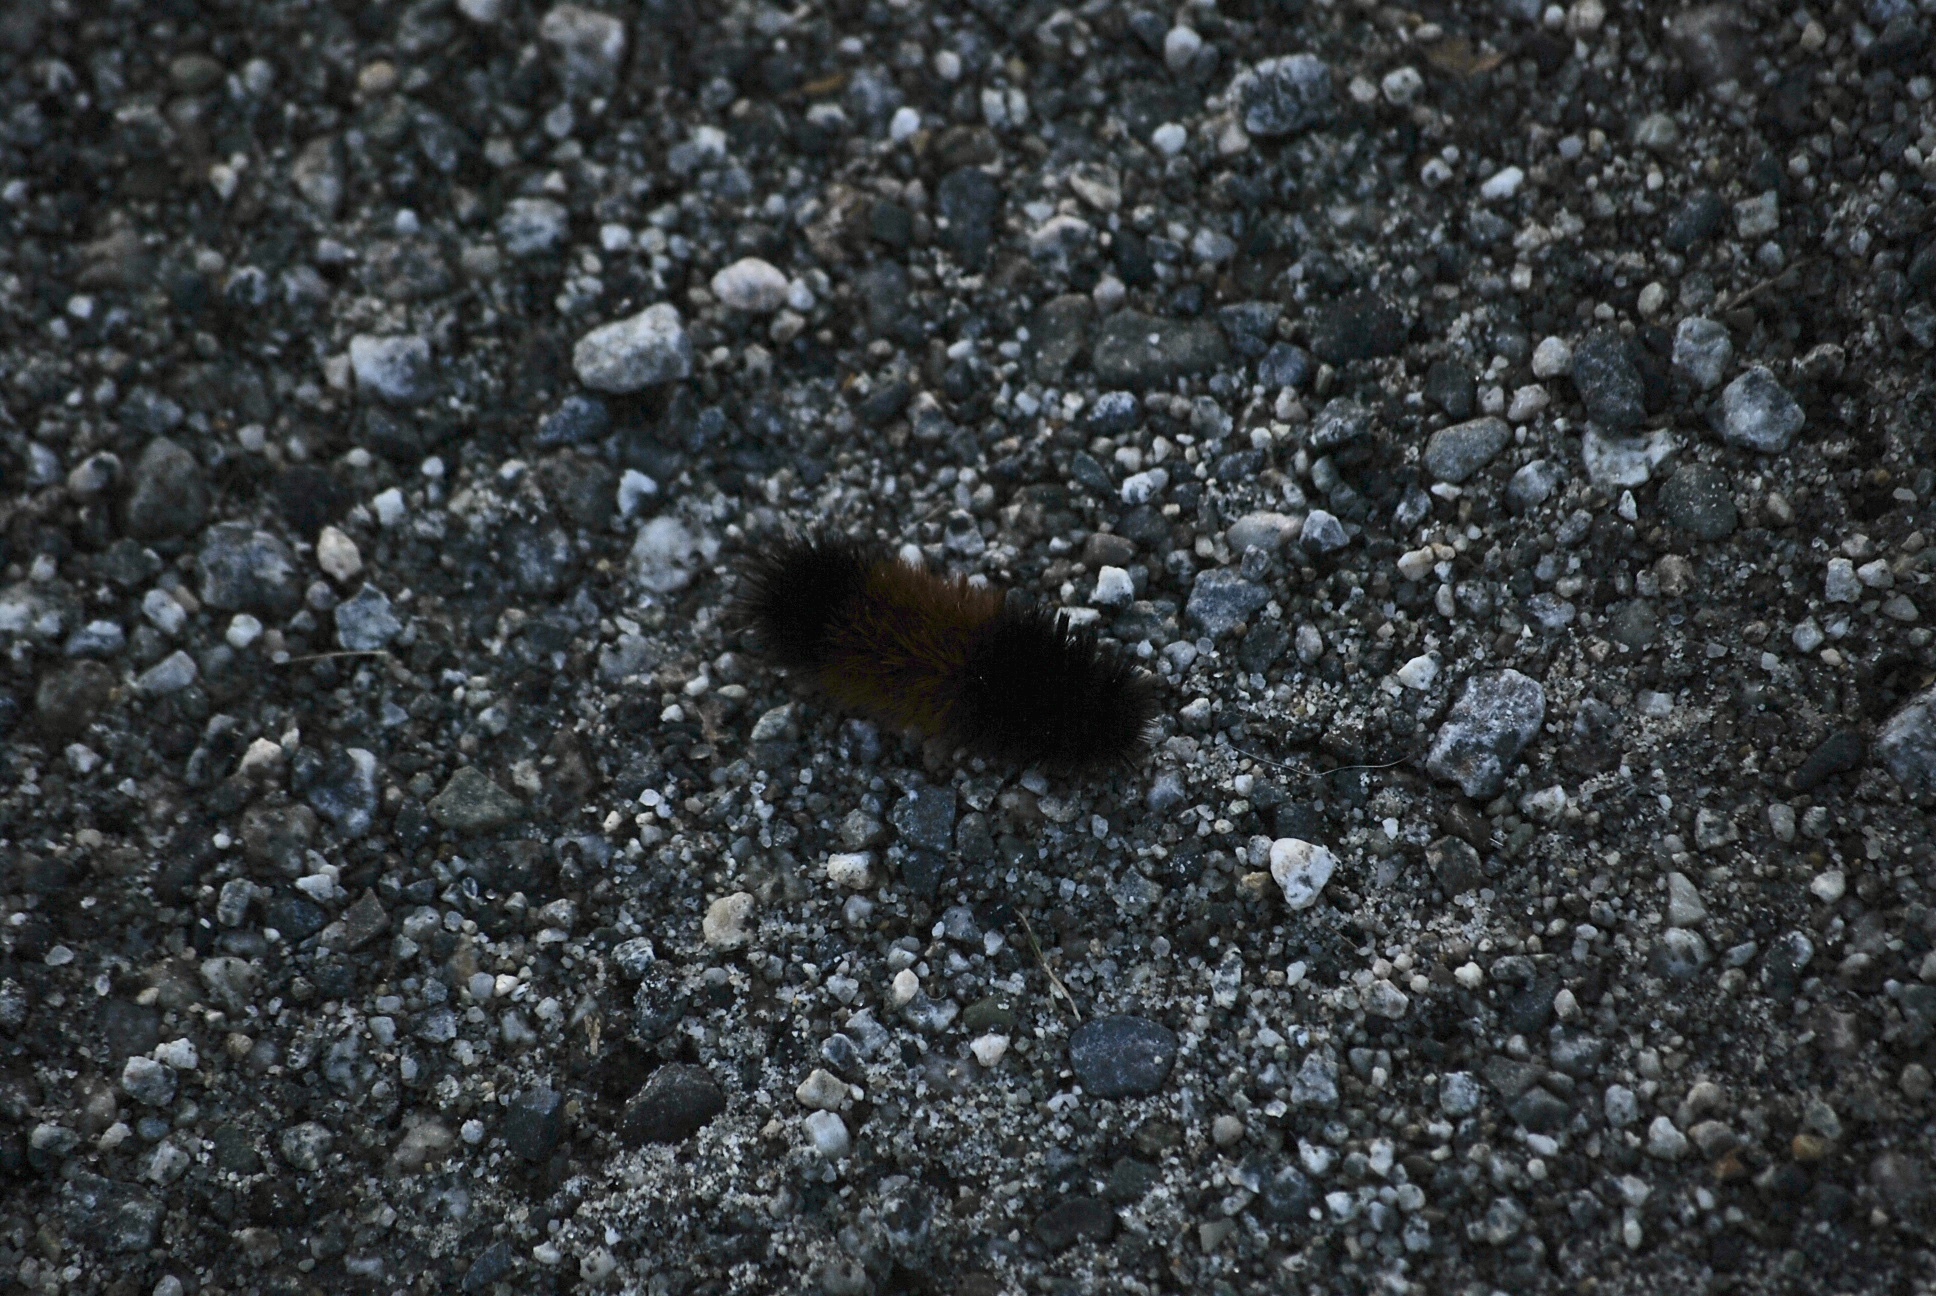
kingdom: Animalia
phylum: Arthropoda
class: Insecta
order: Lepidoptera
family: Erebidae
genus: Pyrrharctia
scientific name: Pyrrharctia isabella
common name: Isabella tiger moth
